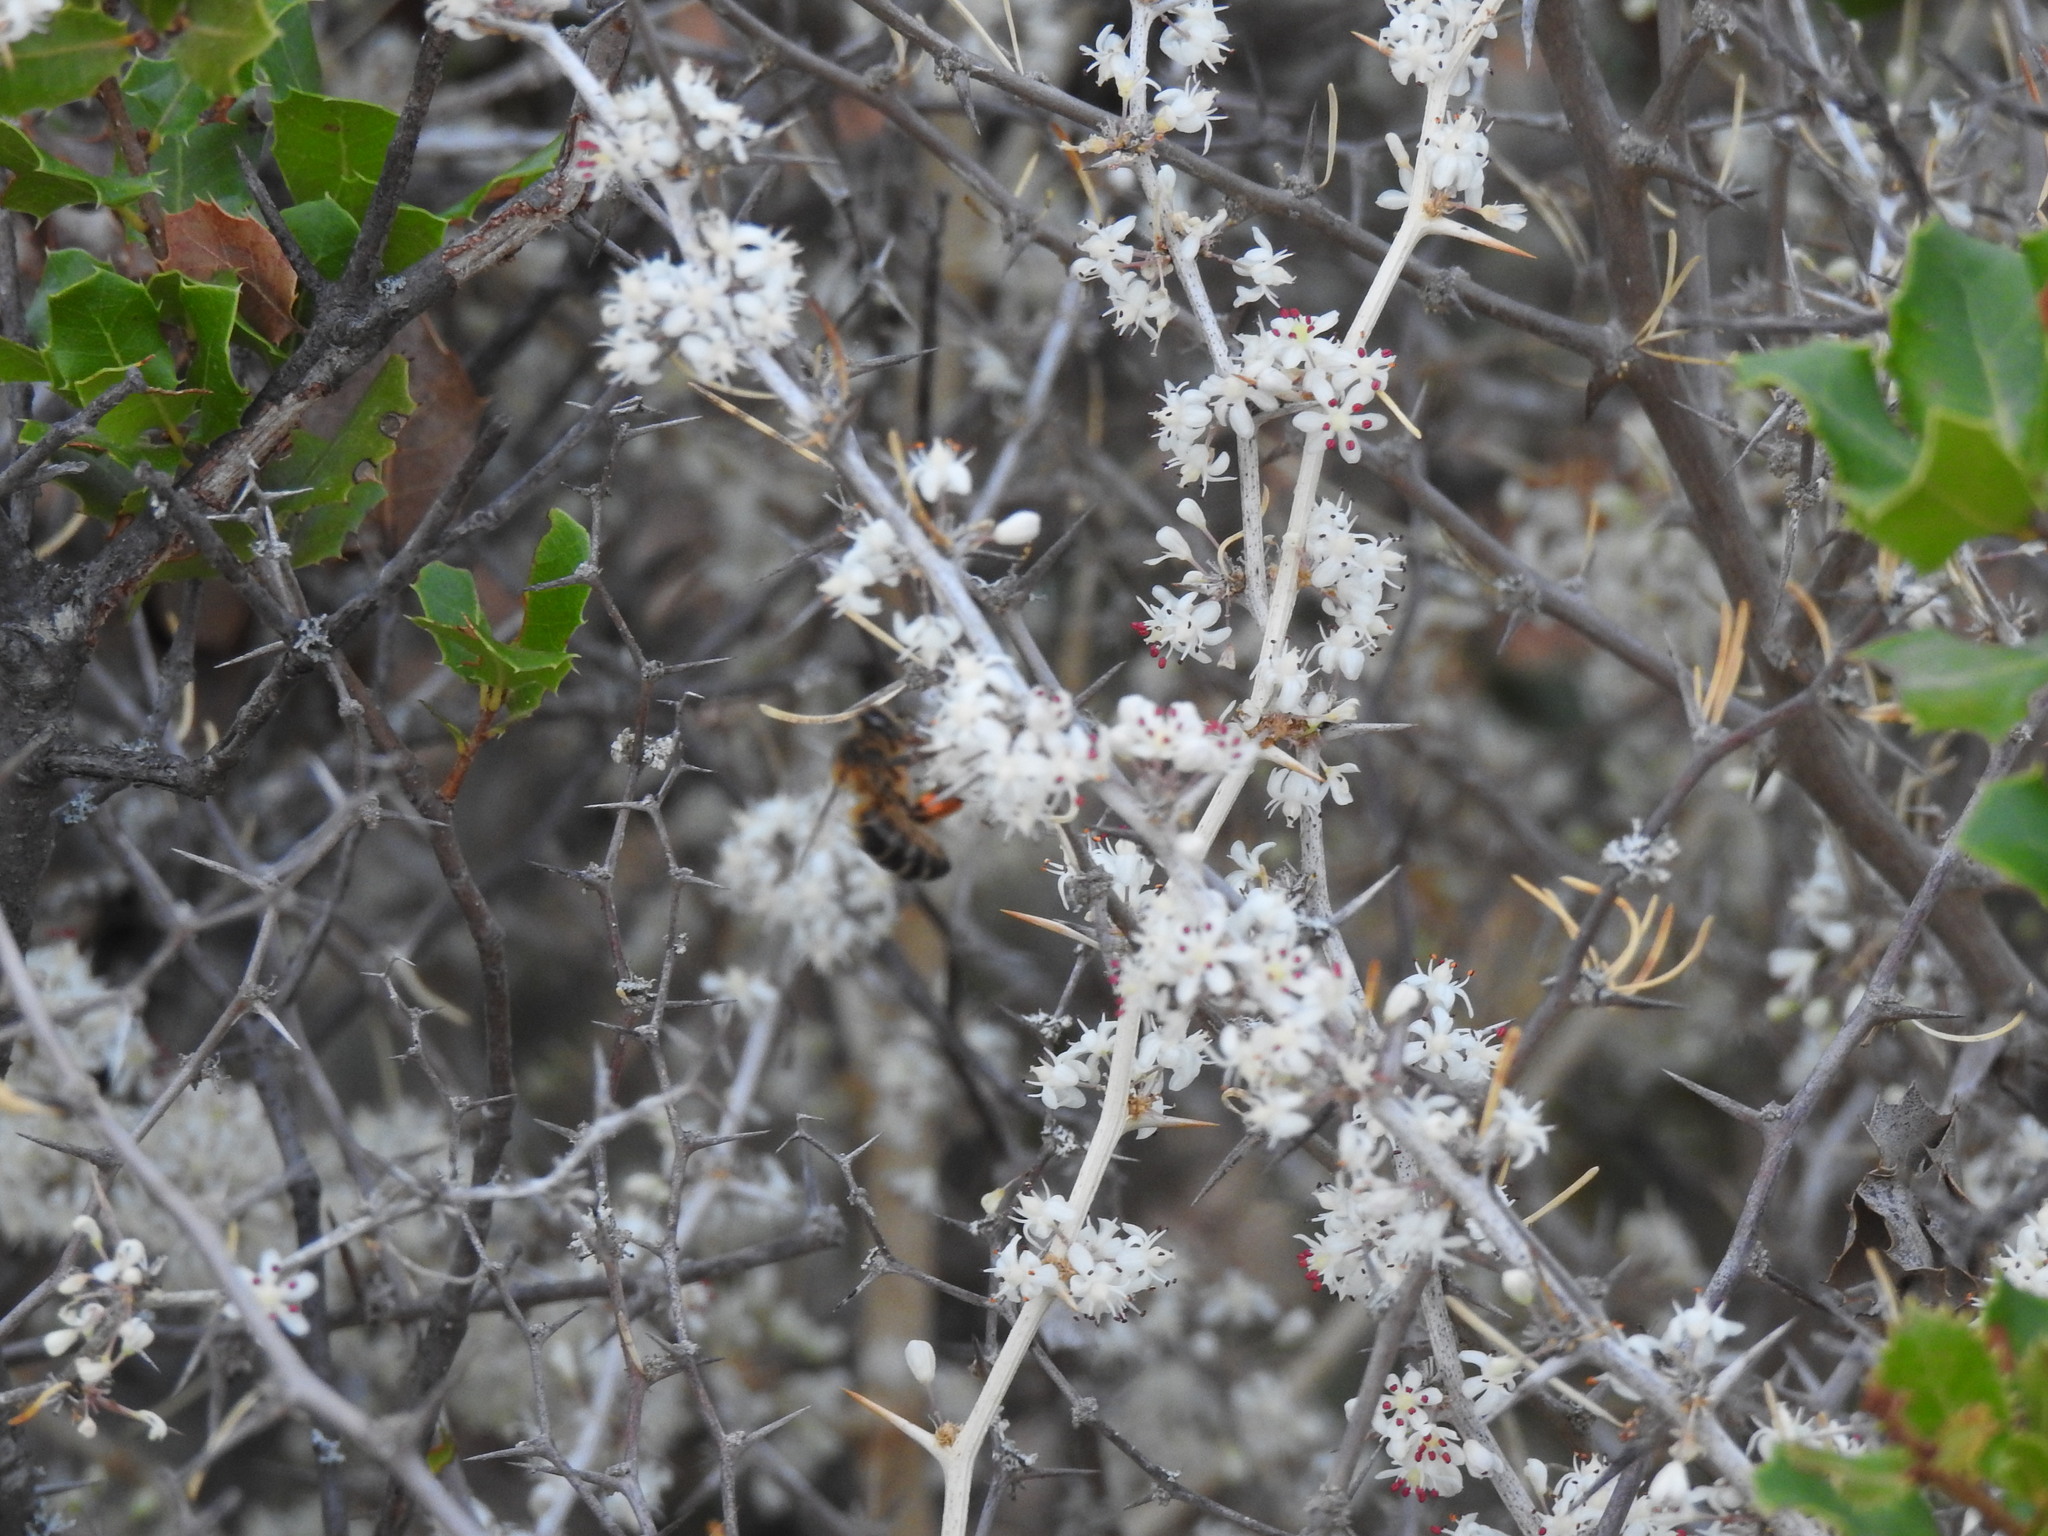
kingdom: Animalia
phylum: Arthropoda
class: Insecta
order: Hymenoptera
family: Apidae
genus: Apis
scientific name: Apis mellifera
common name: Honey bee
